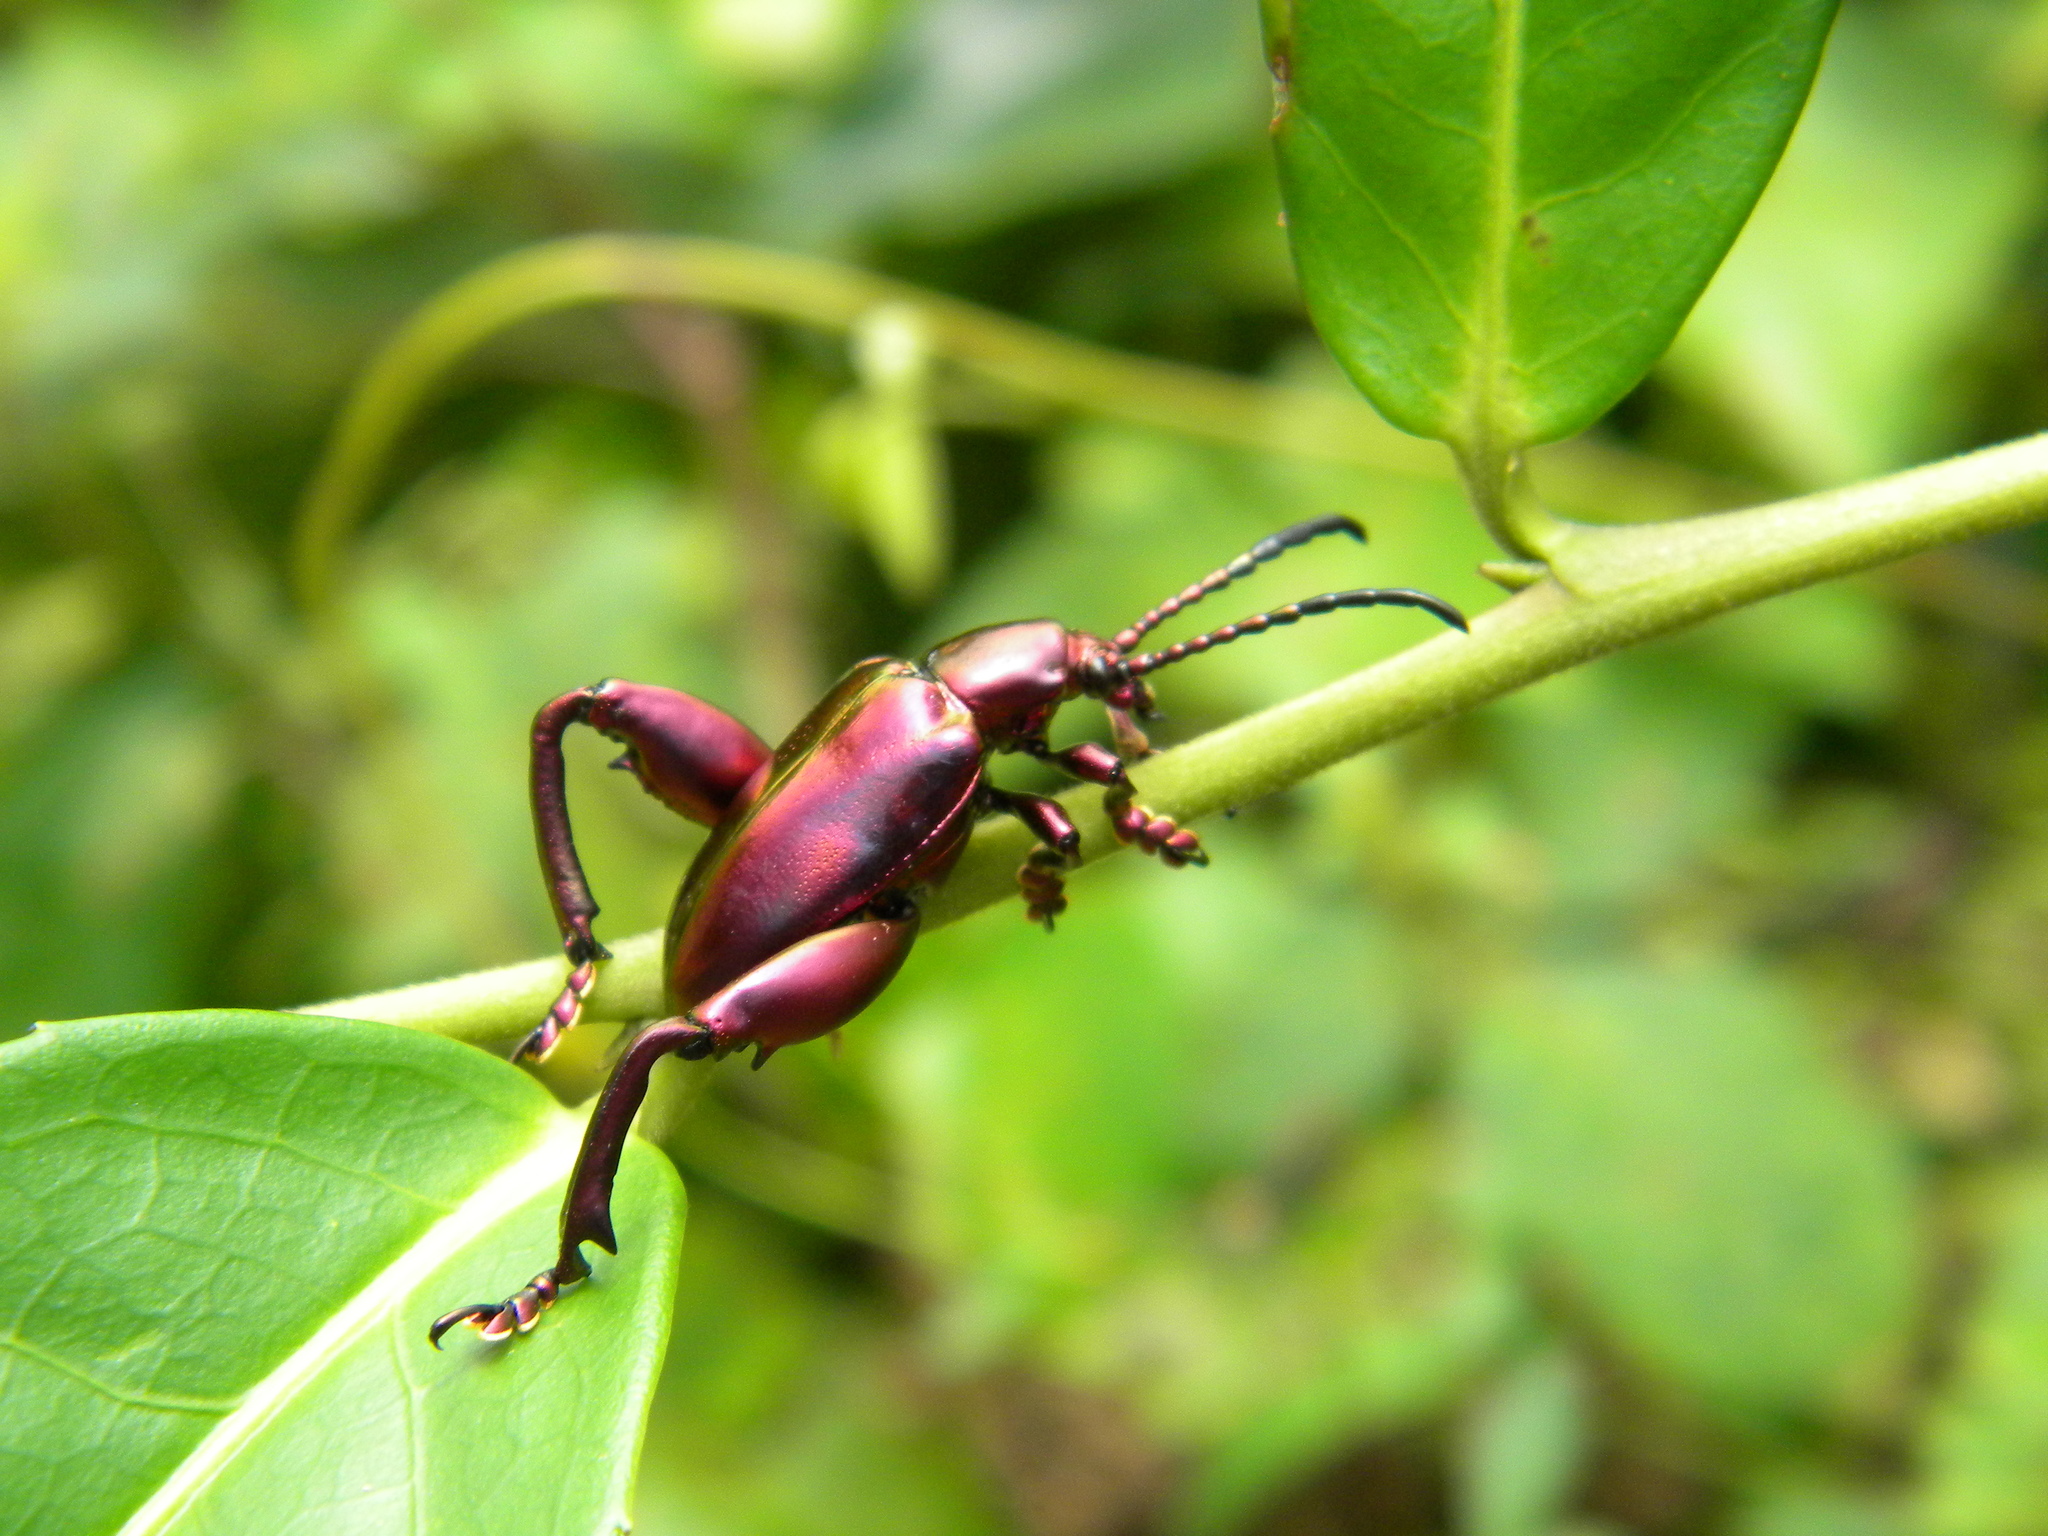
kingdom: Animalia
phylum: Arthropoda
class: Insecta
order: Coleoptera
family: Chrysomelidae
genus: Sagra
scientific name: Sagra femorata
